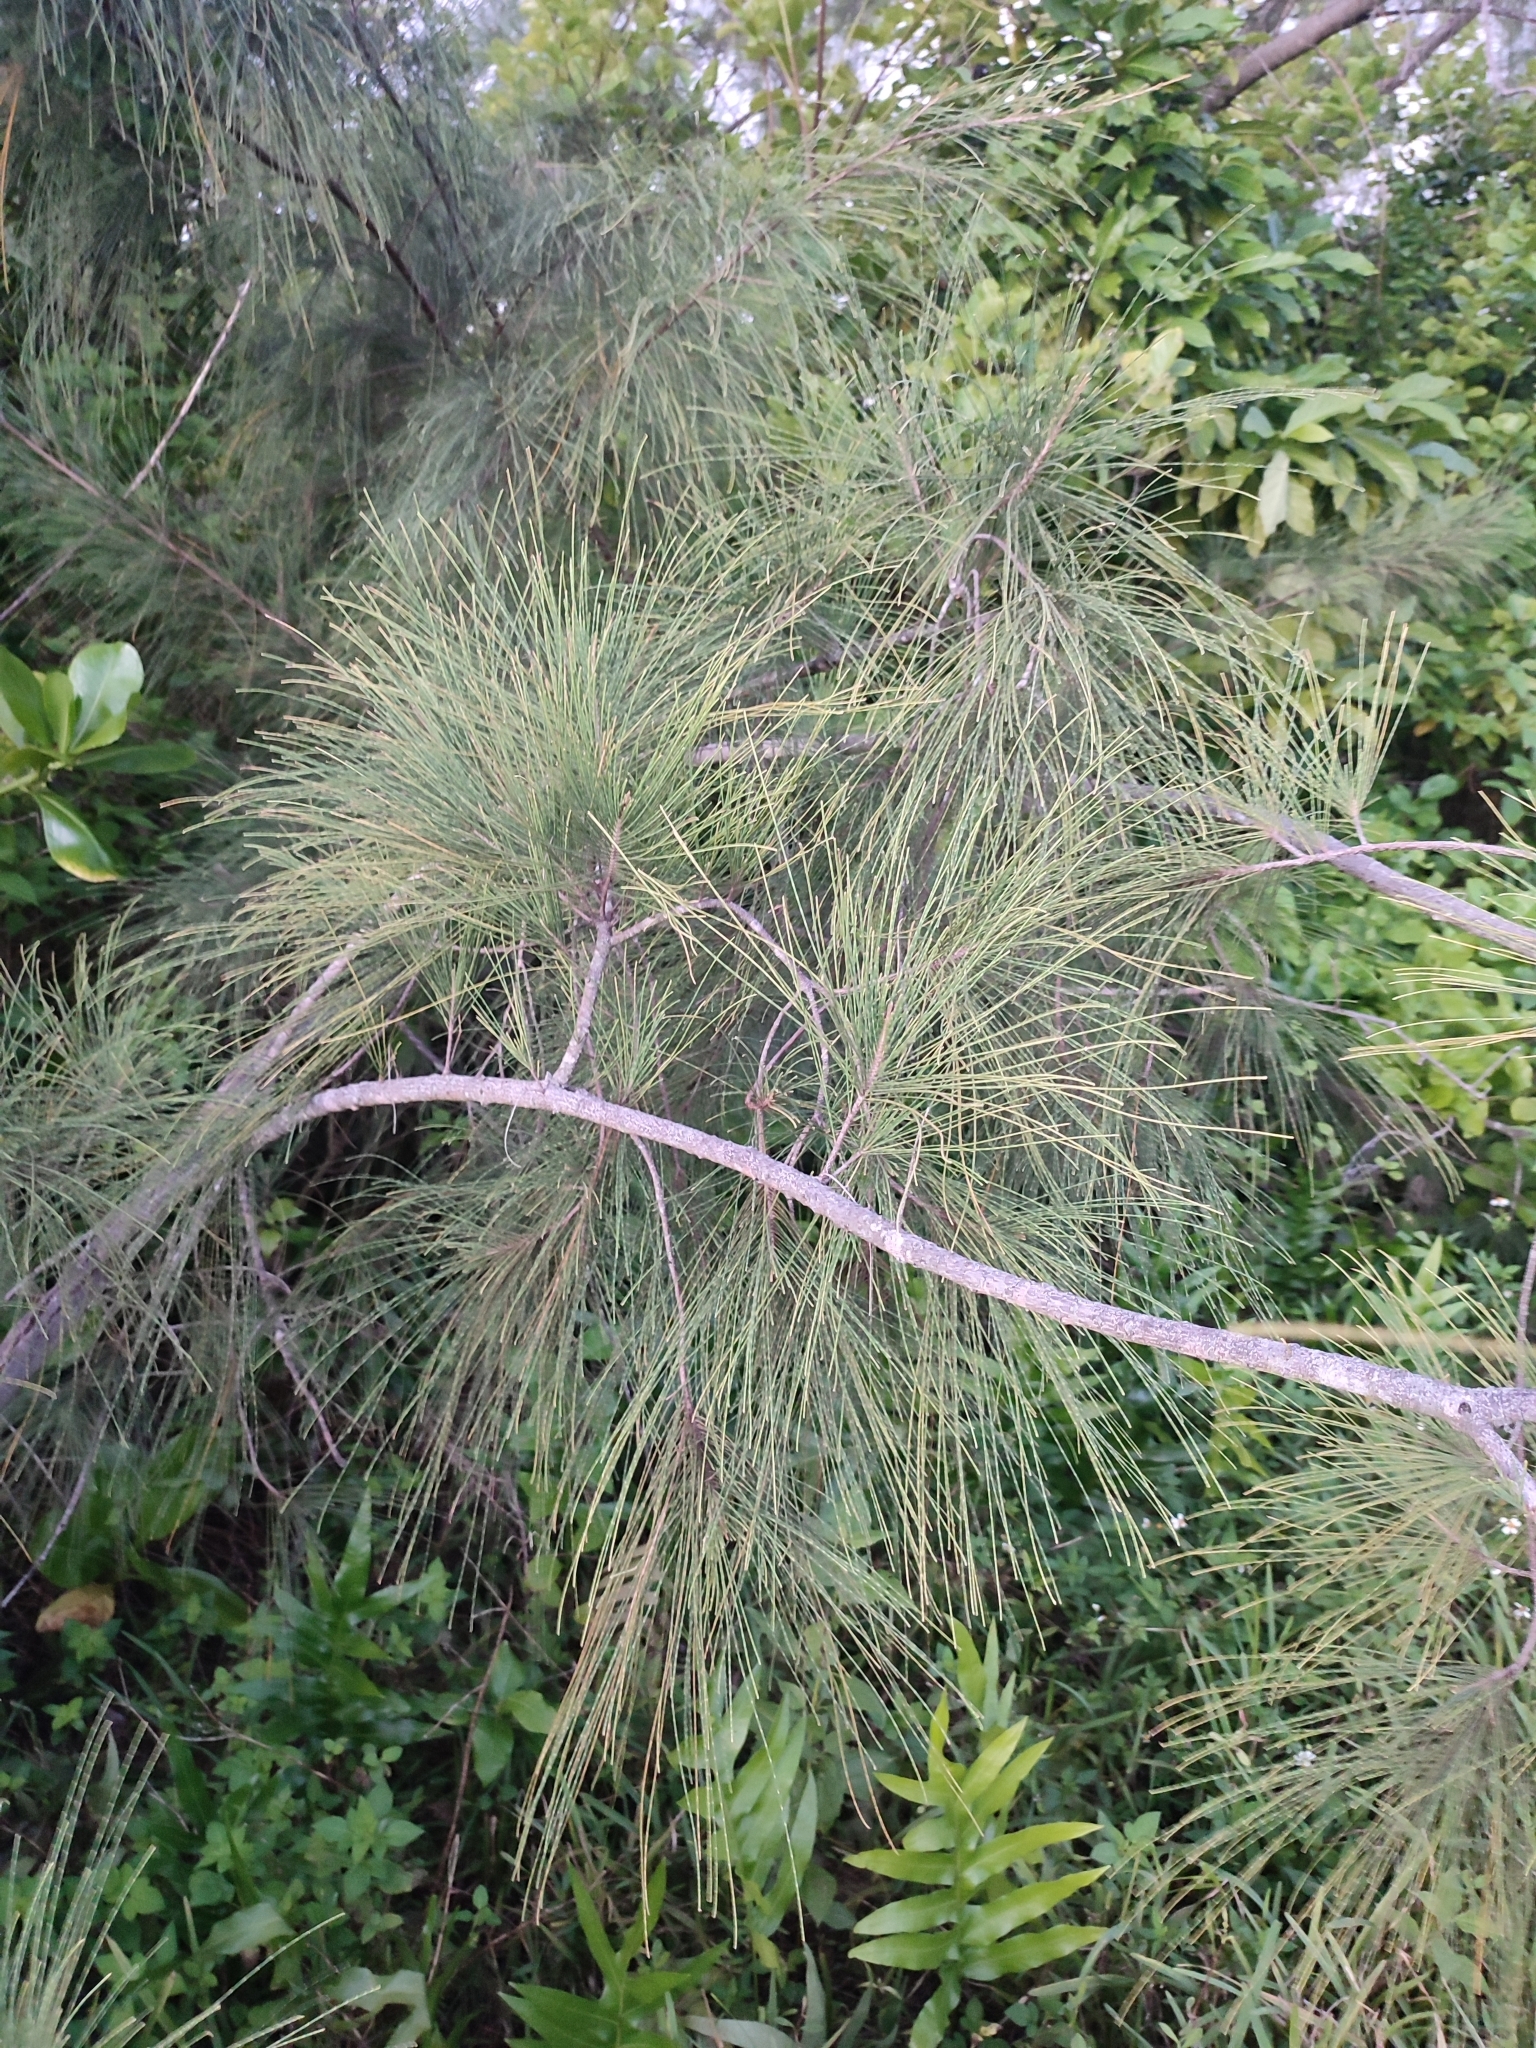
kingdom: Plantae
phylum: Tracheophyta
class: Magnoliopsida
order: Fagales
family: Casuarinaceae
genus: Casuarina
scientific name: Casuarina equisetifolia
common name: Beach sheoak
